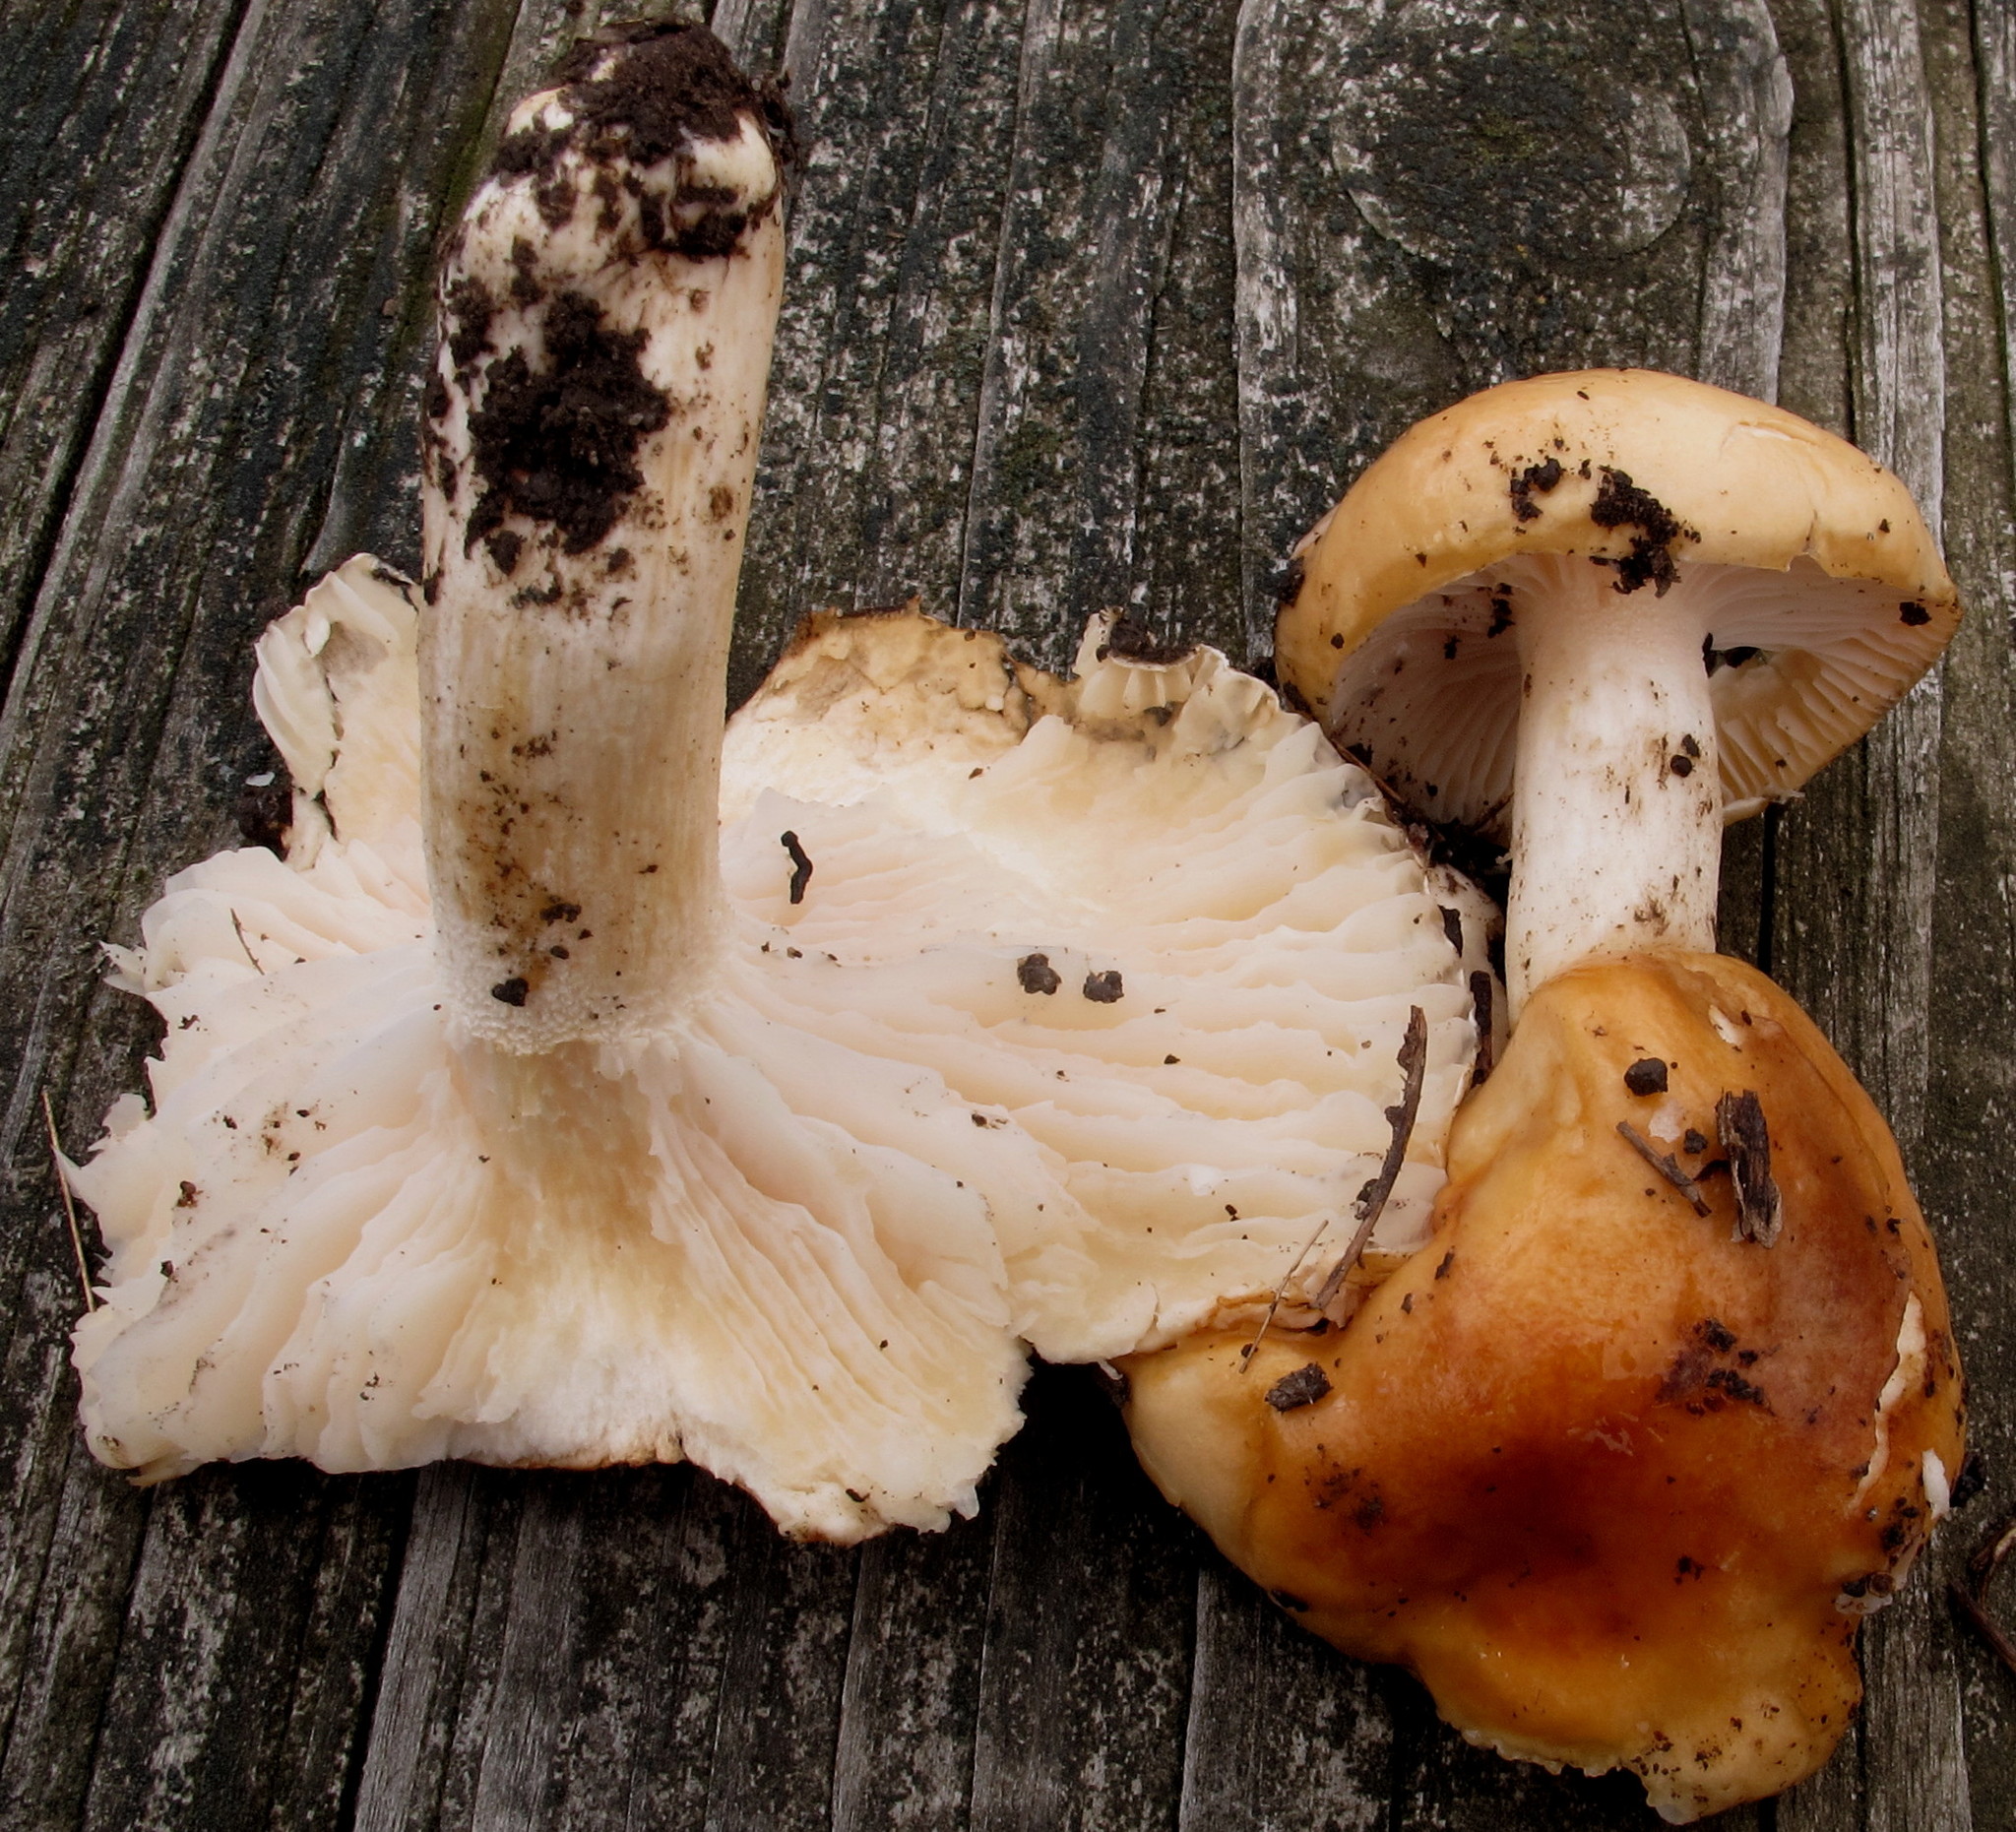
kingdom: Fungi
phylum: Basidiomycota
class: Agaricomycetes
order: Agaricales
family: Hygrophoraceae
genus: Hygrophorus
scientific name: Hygrophorus subsalmonius
